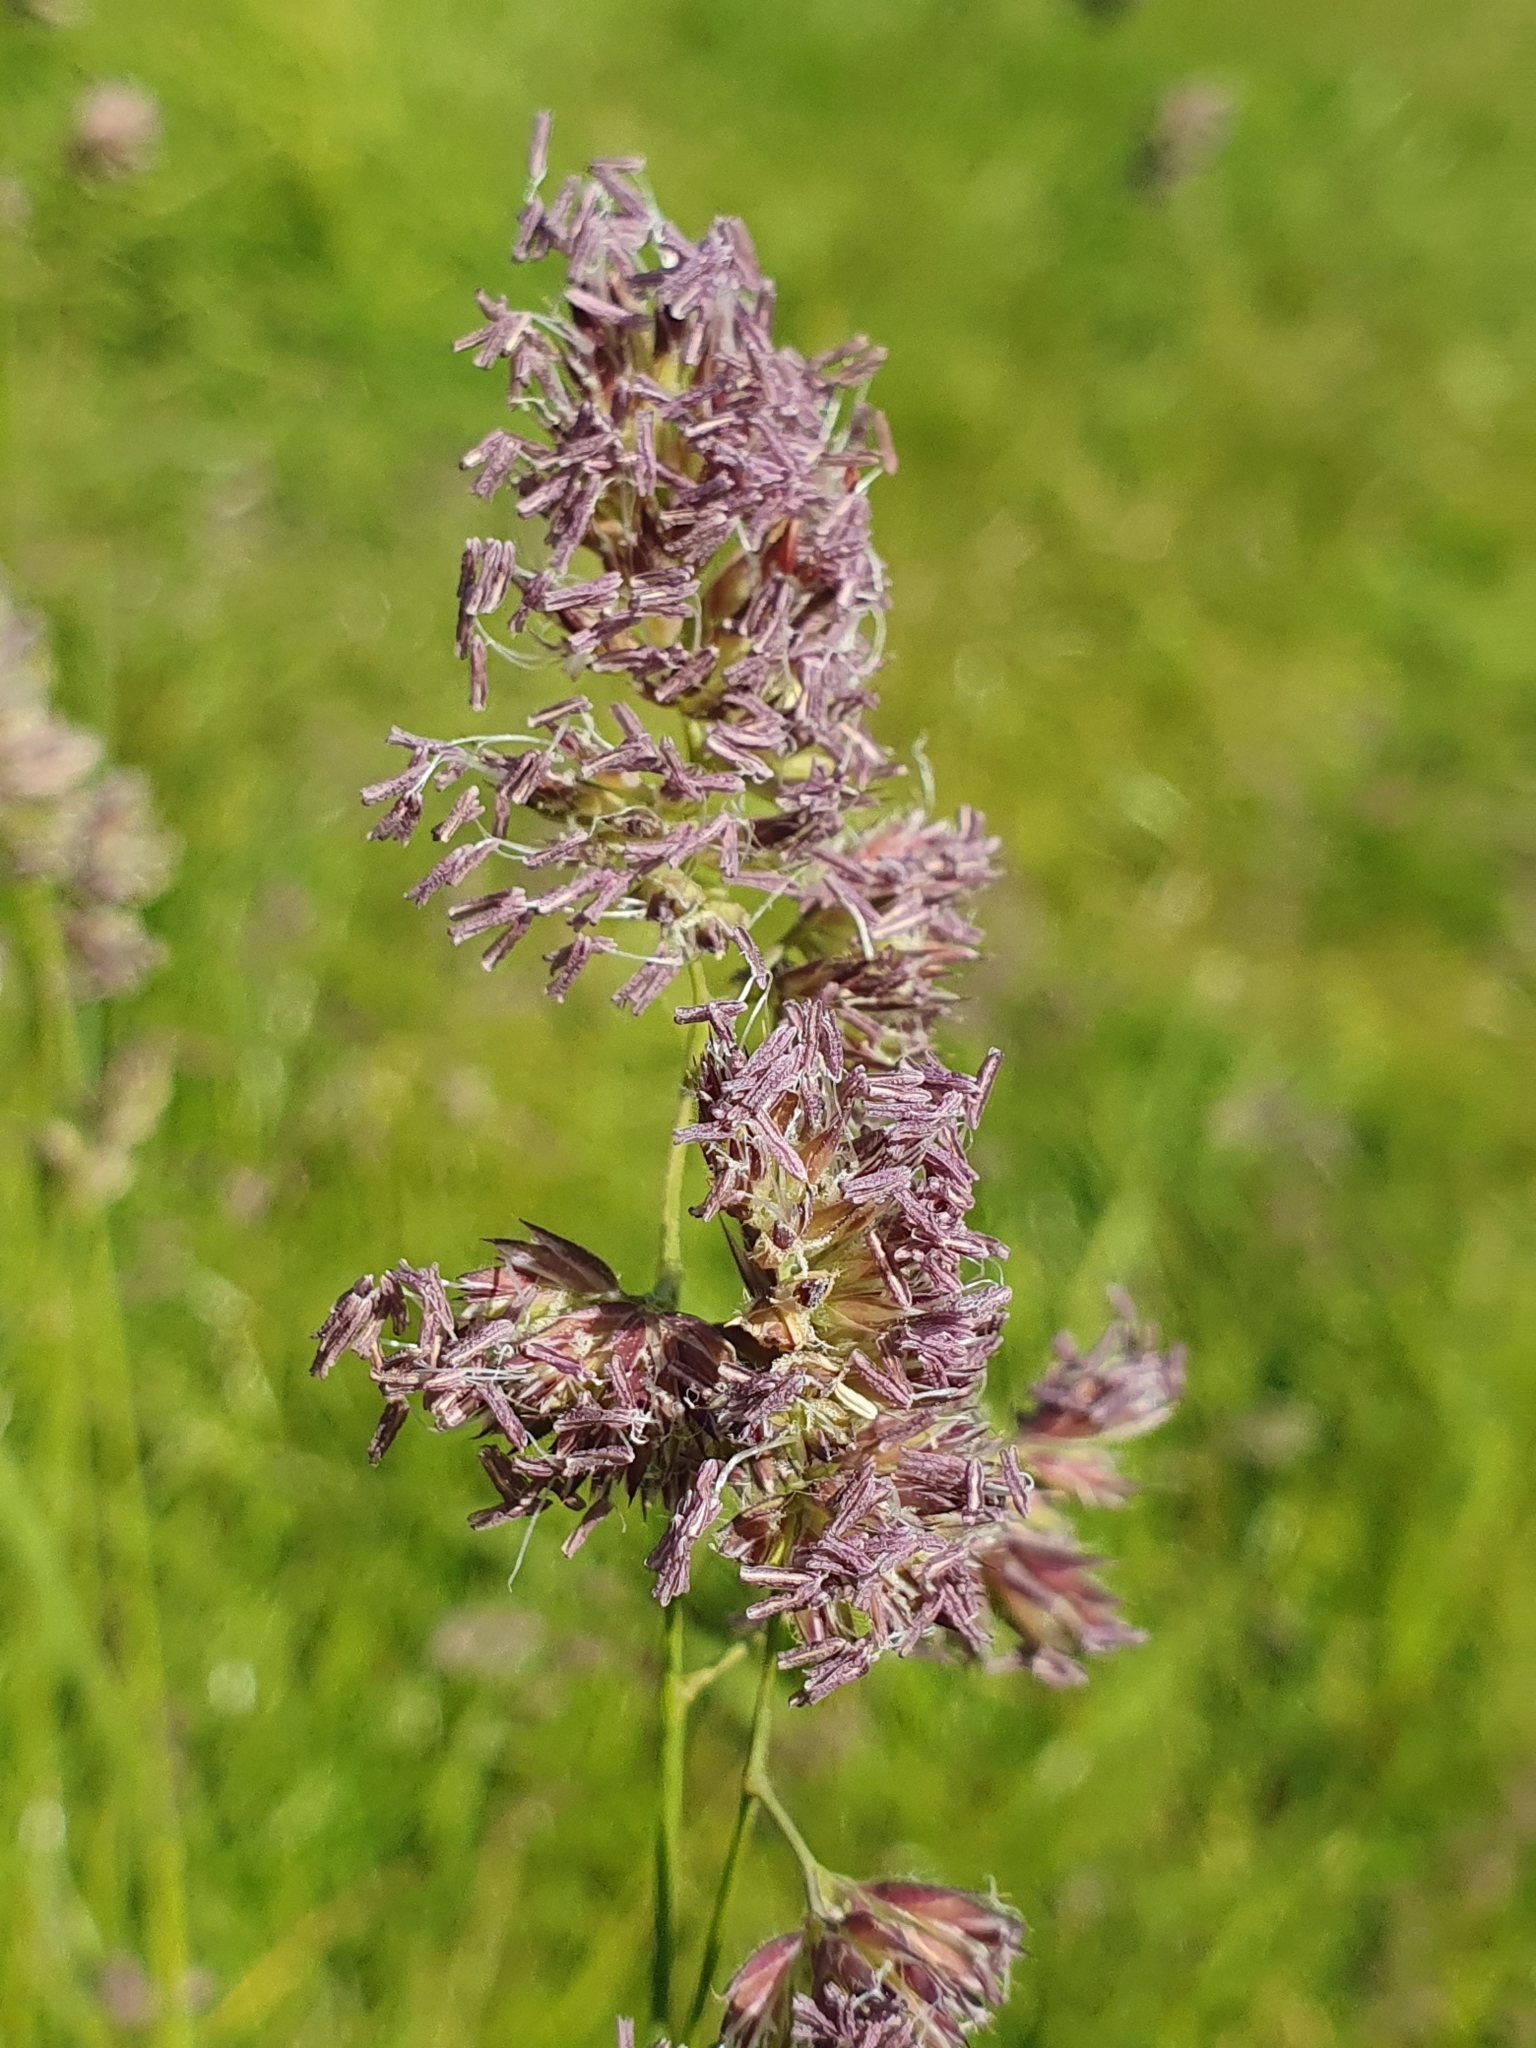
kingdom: Plantae
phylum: Tracheophyta
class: Liliopsida
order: Poales
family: Poaceae
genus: Dactylis
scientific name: Dactylis glomerata
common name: Orchardgrass
